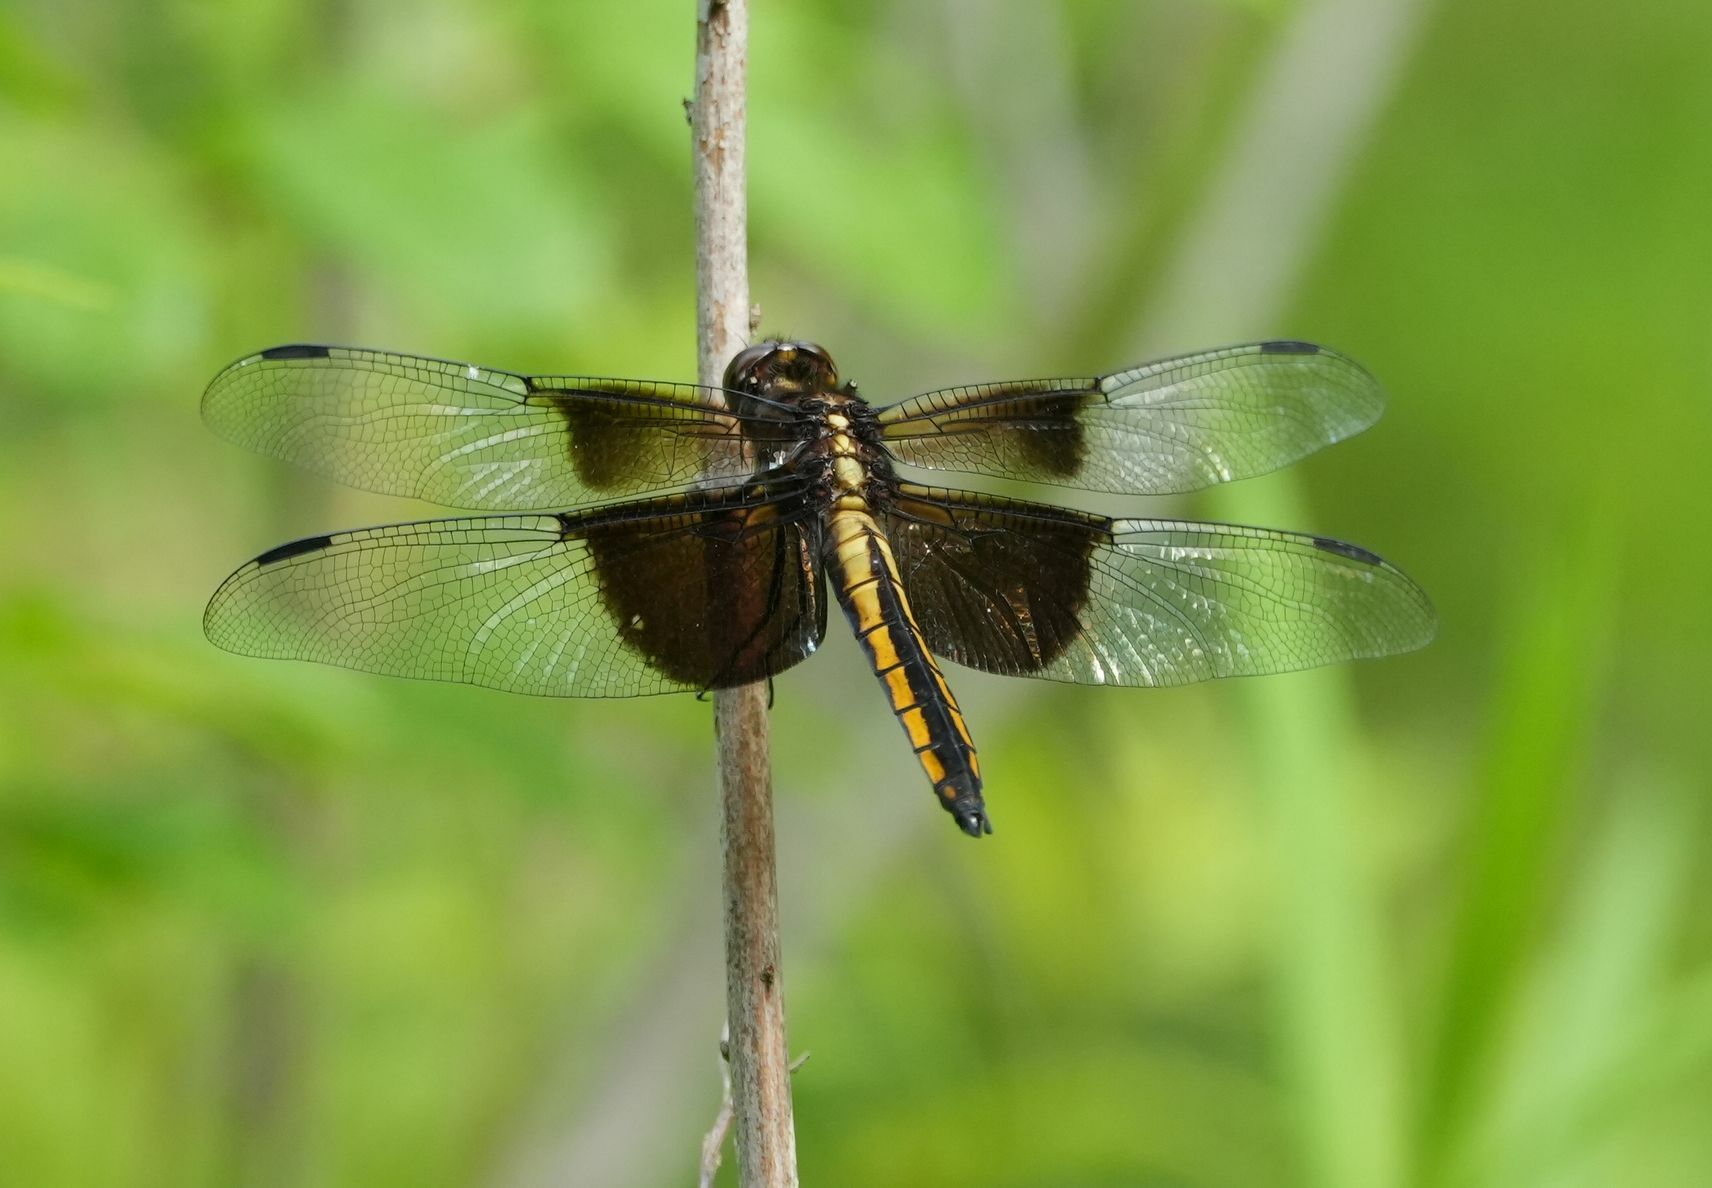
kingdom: Animalia
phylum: Arthropoda
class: Insecta
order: Odonata
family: Libellulidae
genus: Libellula
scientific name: Libellula luctuosa
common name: Widow skimmer
